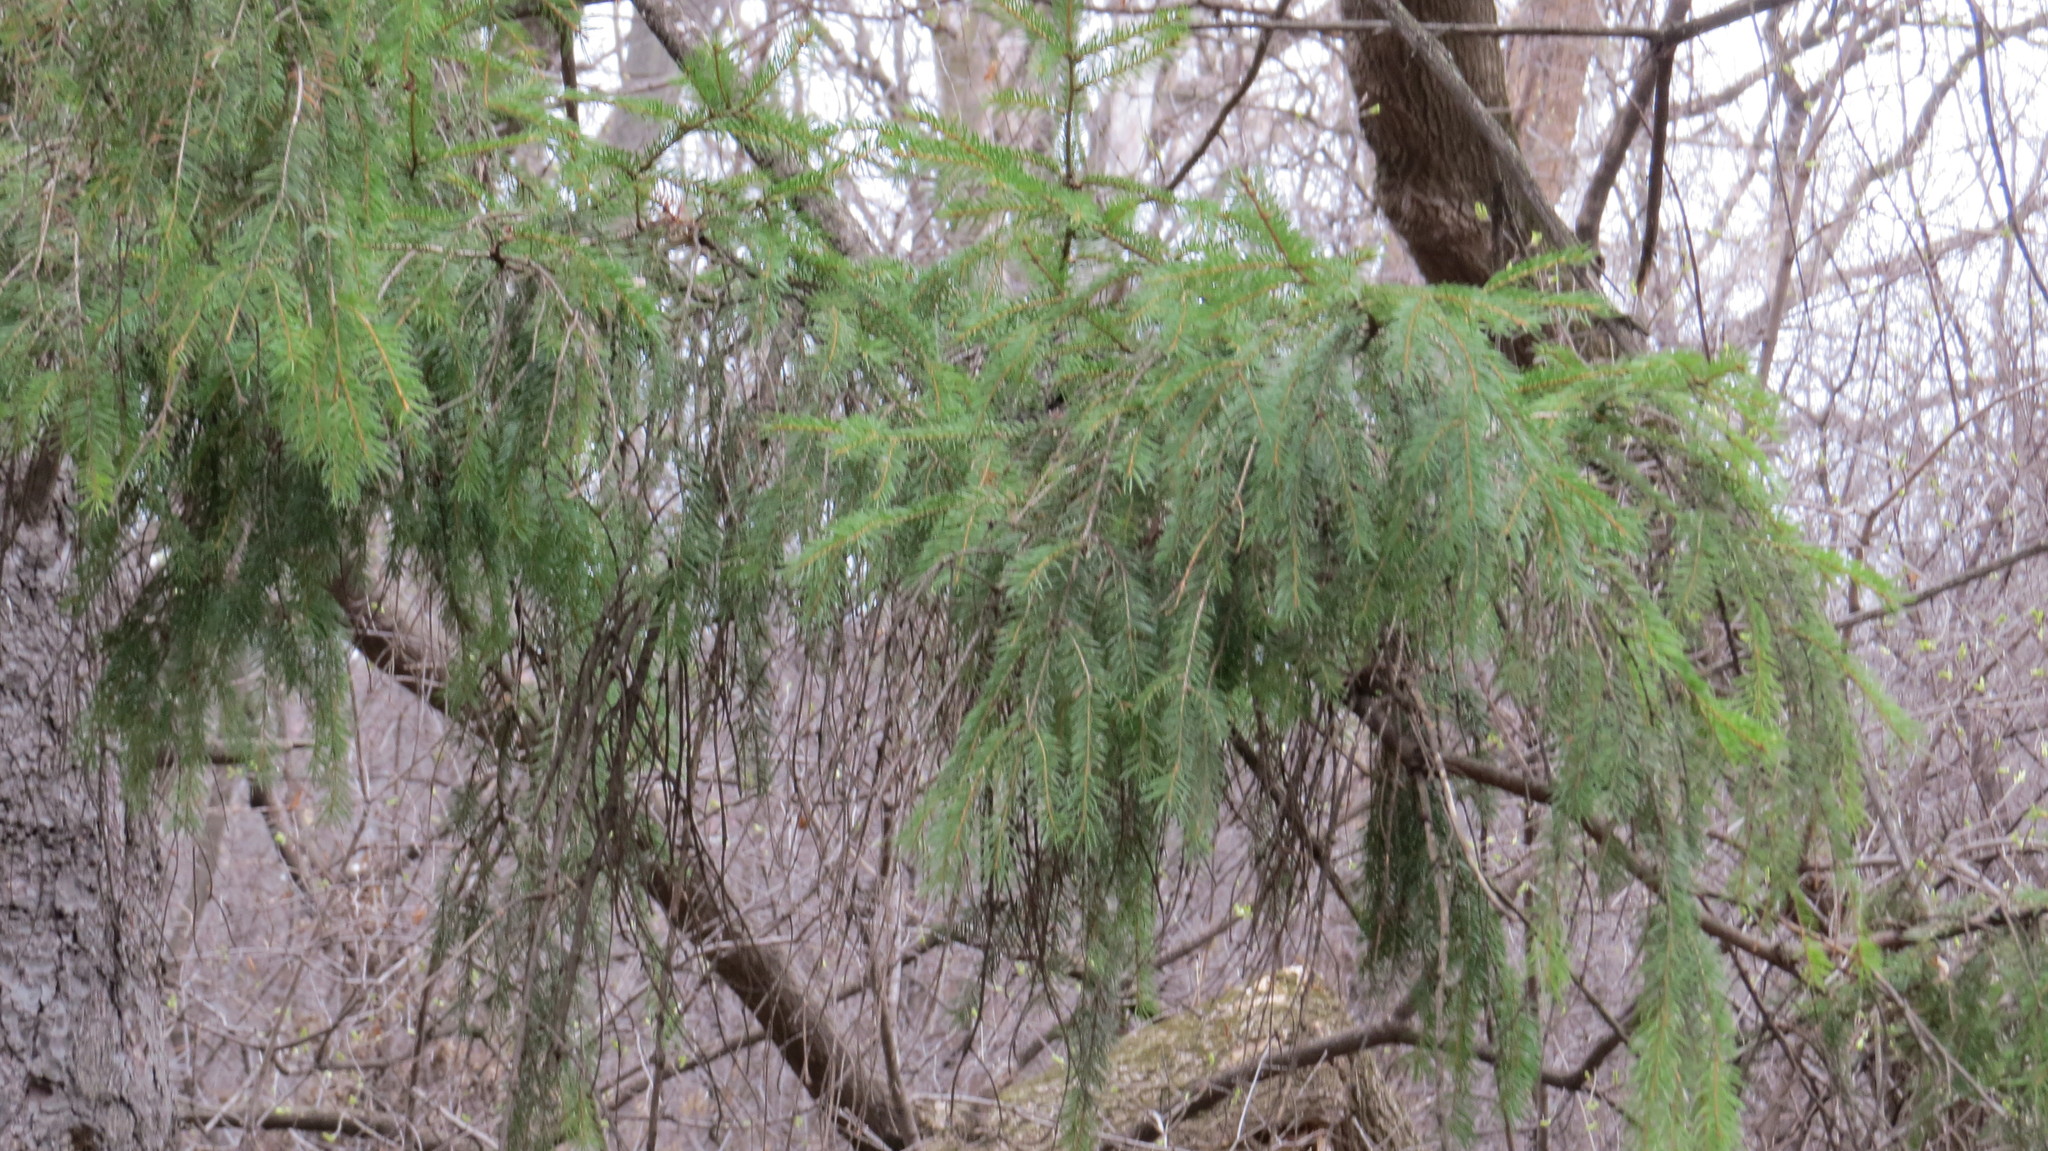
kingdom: Plantae
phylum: Tracheophyta
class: Pinopsida
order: Pinales
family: Pinaceae
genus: Picea
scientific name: Picea abies
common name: Norway spruce
